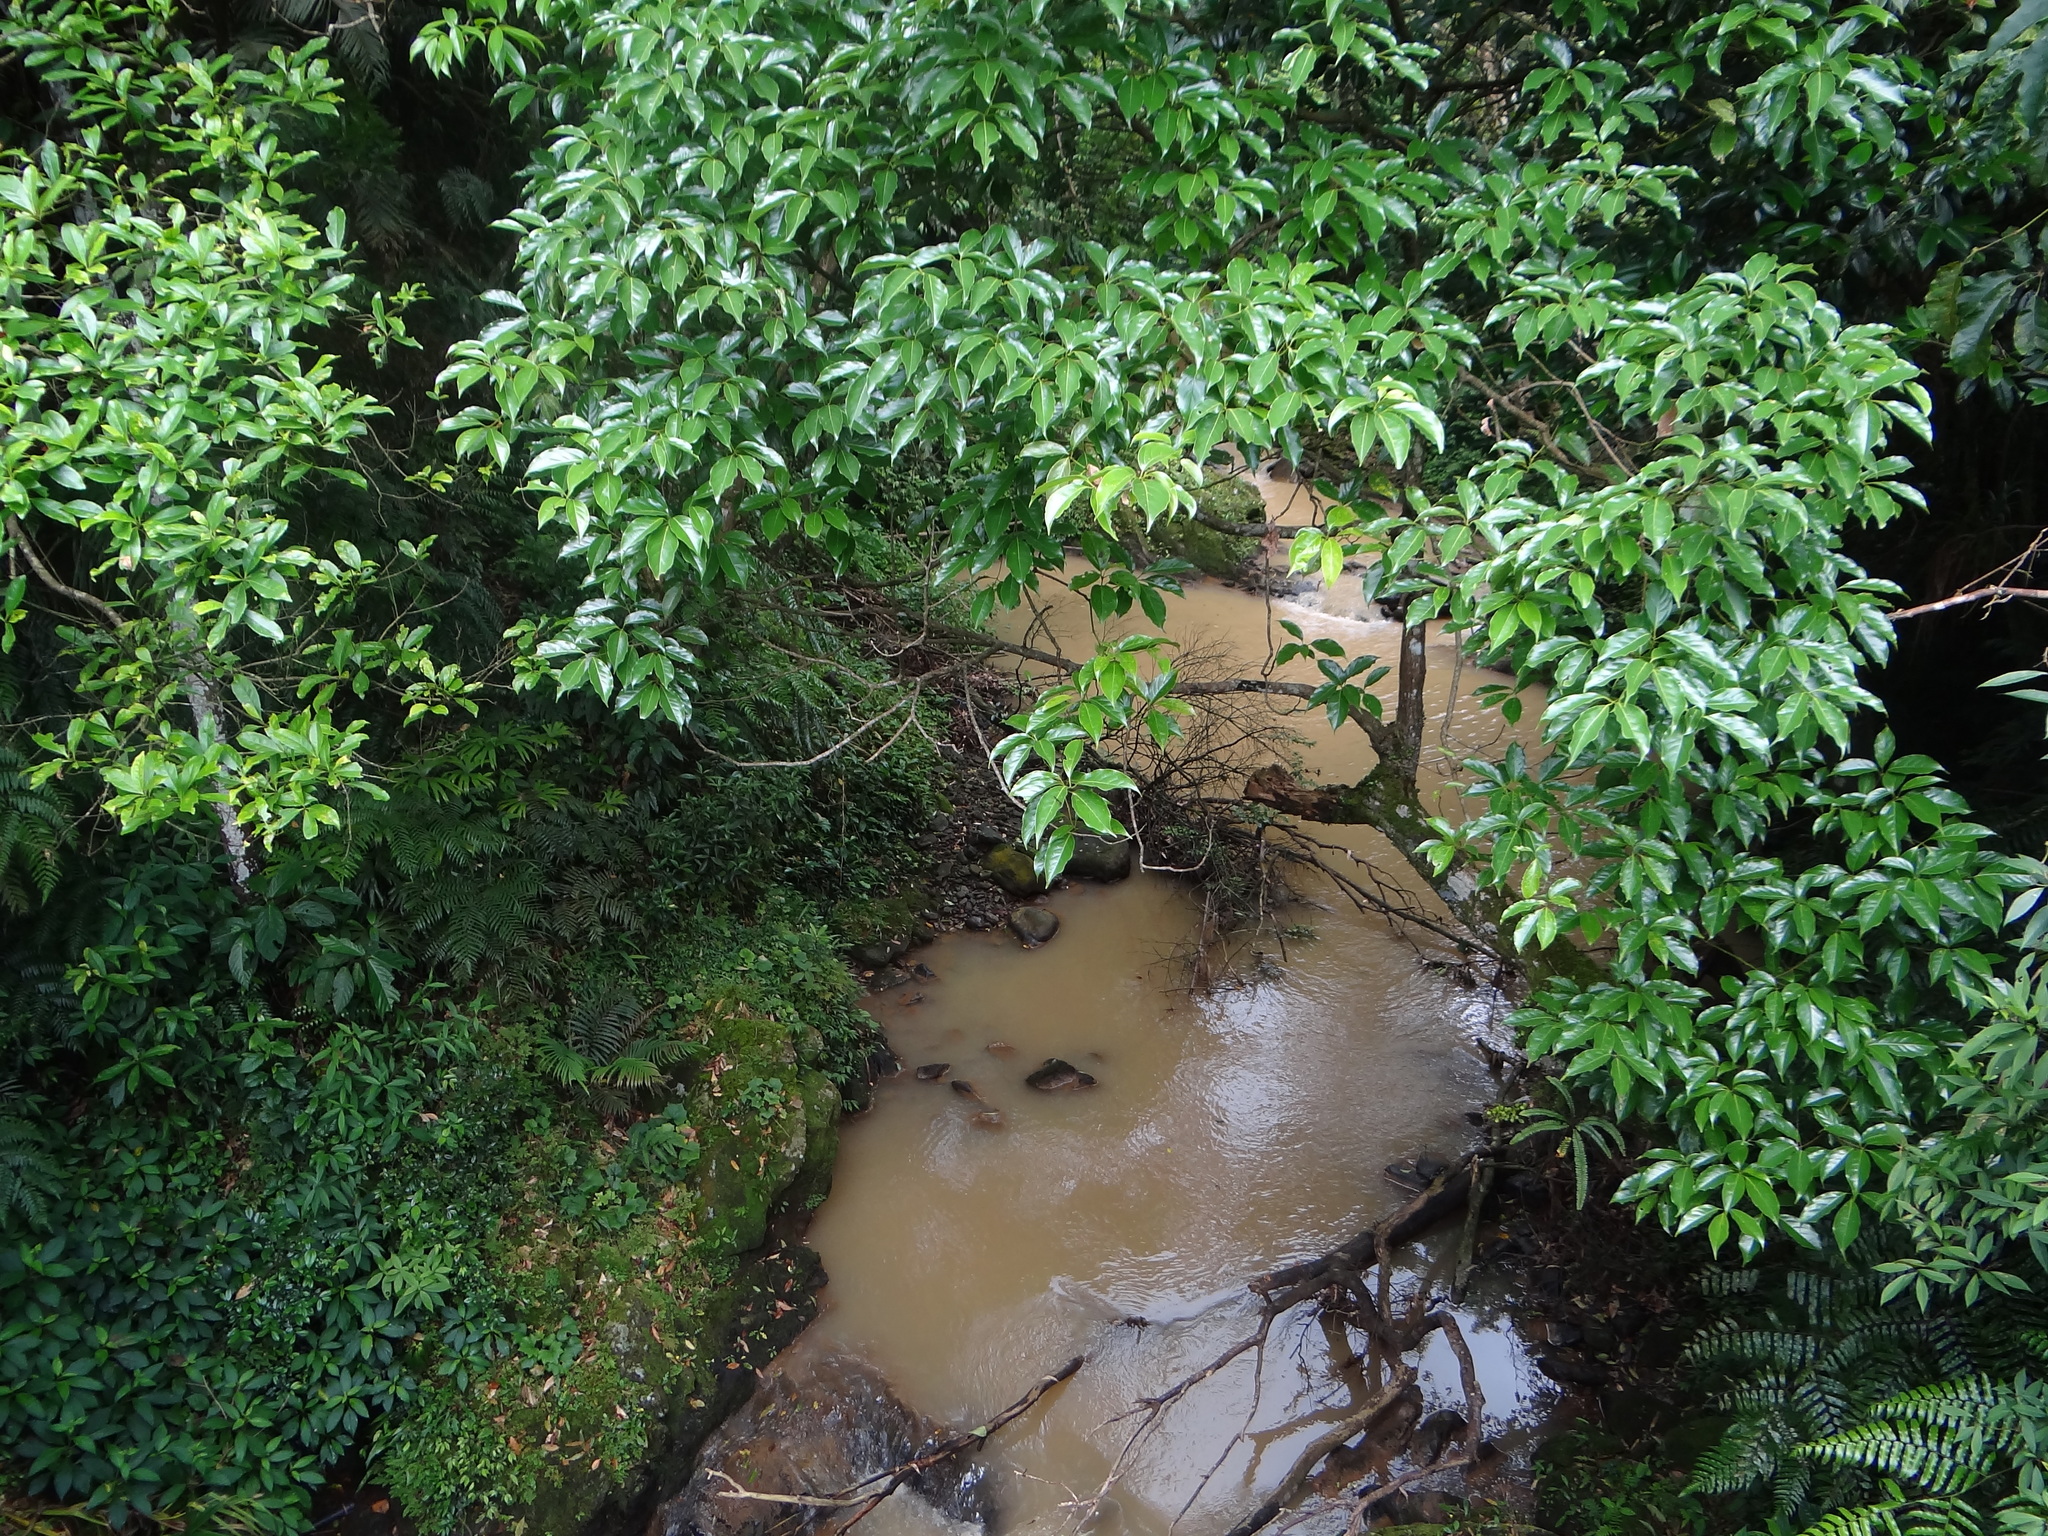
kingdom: Plantae
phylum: Tracheophyta
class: Magnoliopsida
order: Laurales
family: Lauraceae
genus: Cinnamomum
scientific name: Cinnamomum micranthum
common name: Chinese-sassafras
